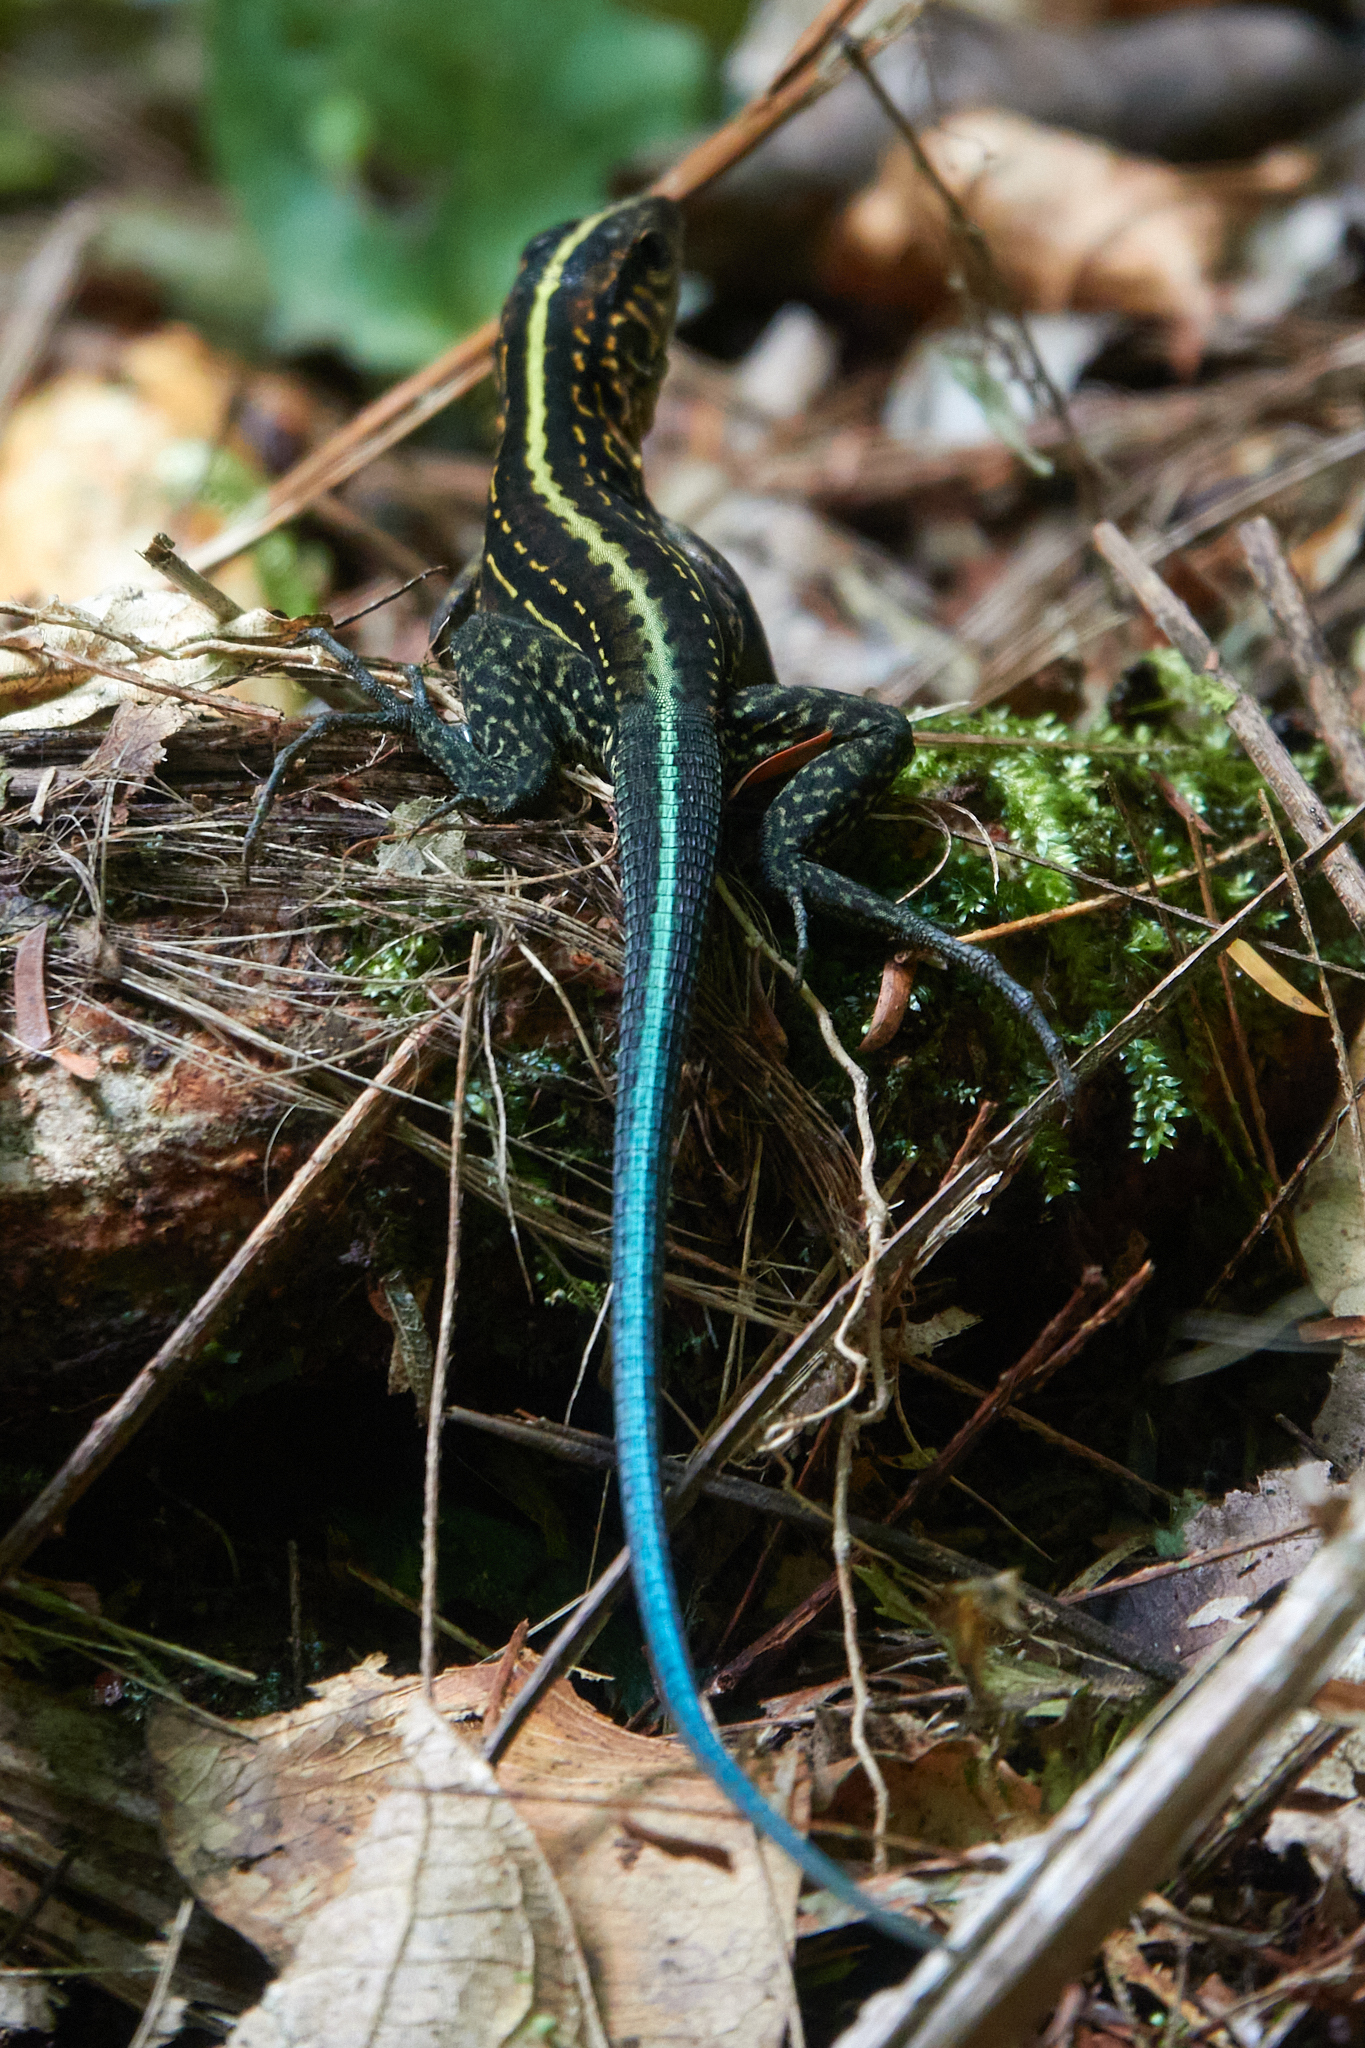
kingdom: Animalia
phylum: Chordata
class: Squamata
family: Teiidae
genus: Holcosus
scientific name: Holcosus festivus
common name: Middle american ameiva
